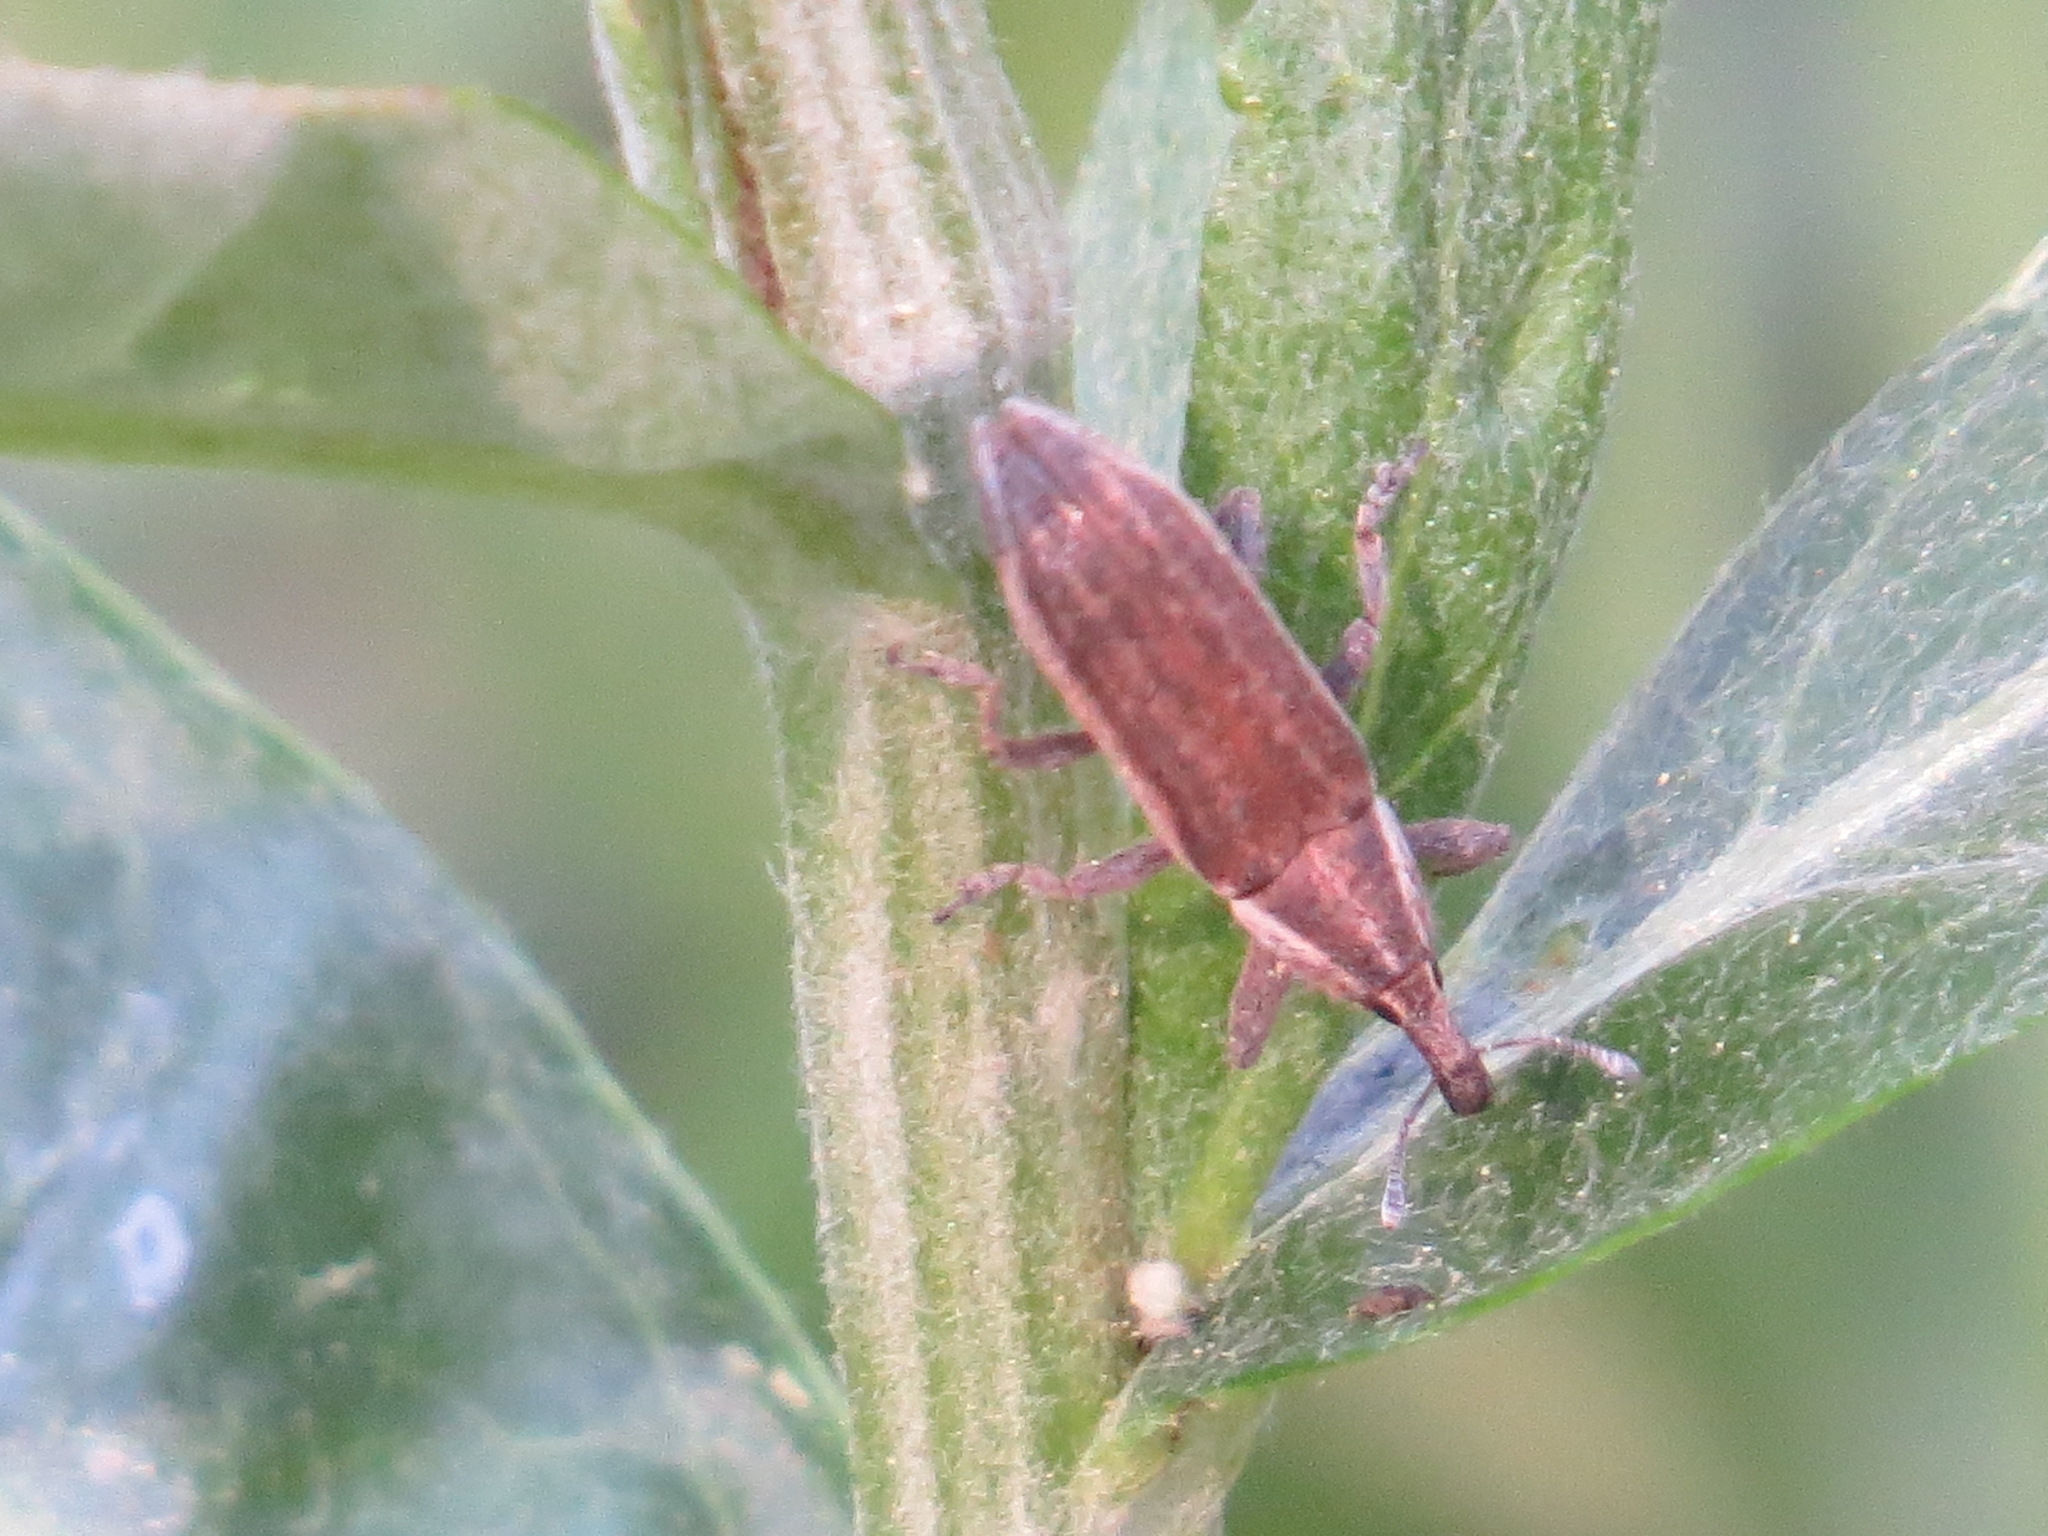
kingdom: Animalia
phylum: Arthropoda
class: Insecta
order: Coleoptera
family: Curculionidae
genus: Lixus
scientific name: Lixus perforatus
